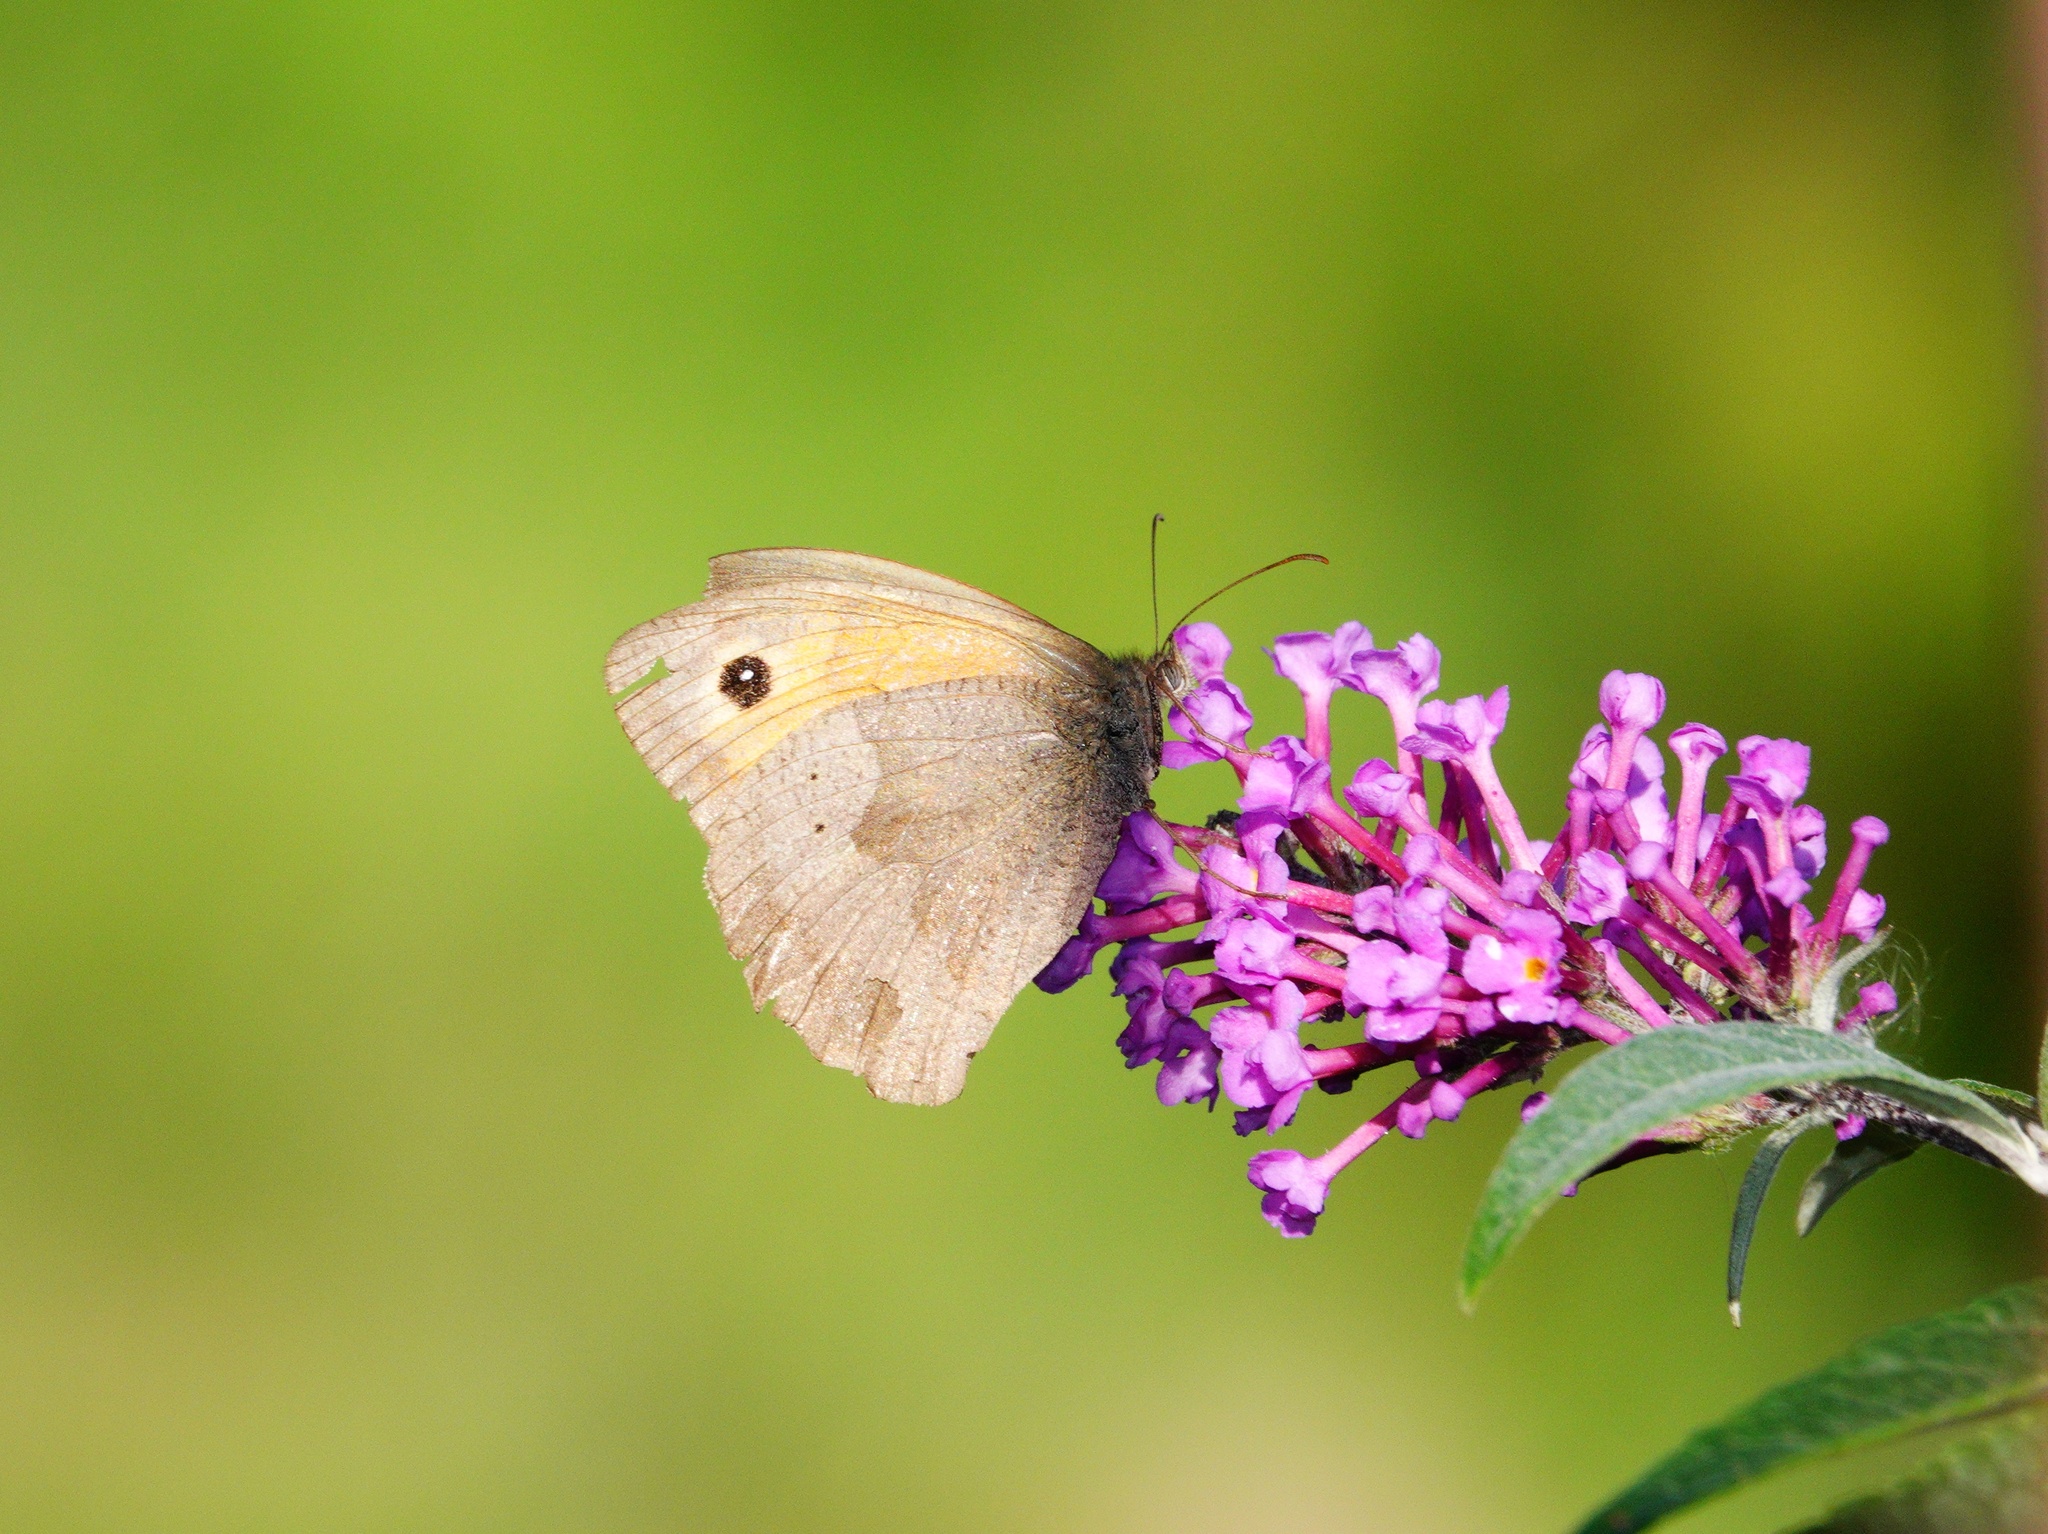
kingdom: Animalia
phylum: Arthropoda
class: Insecta
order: Lepidoptera
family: Nymphalidae
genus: Maniola
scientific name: Maniola jurtina
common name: Meadow brown
